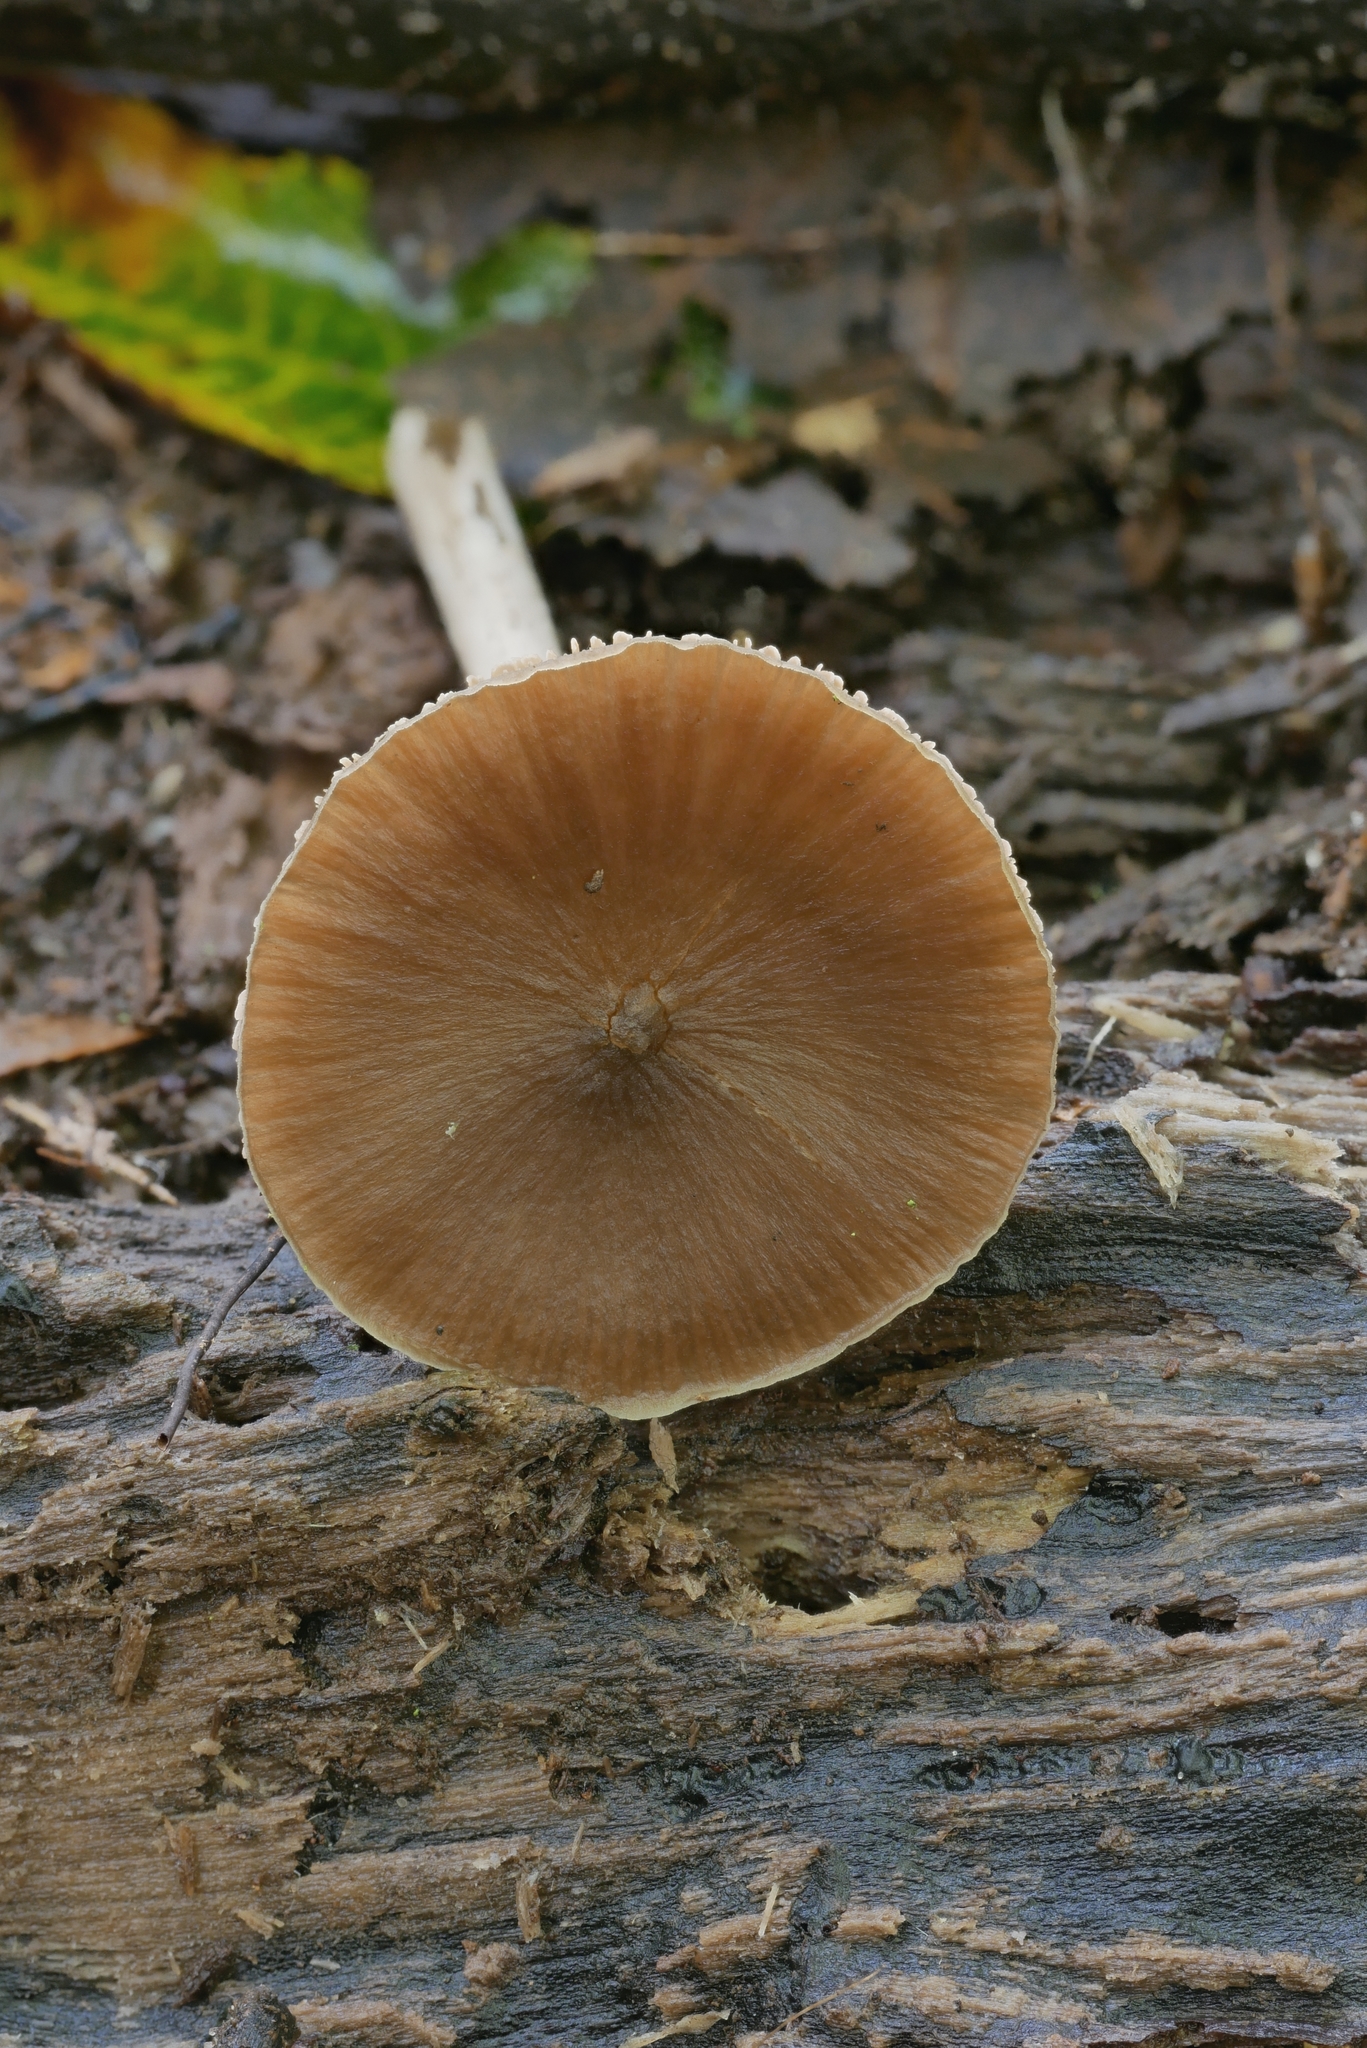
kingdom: Fungi
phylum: Basidiomycota
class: Agaricomycetes
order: Agaricales
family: Entolomataceae
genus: Entoloma
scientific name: Entoloma strictius
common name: Straight-stalked entoloma
